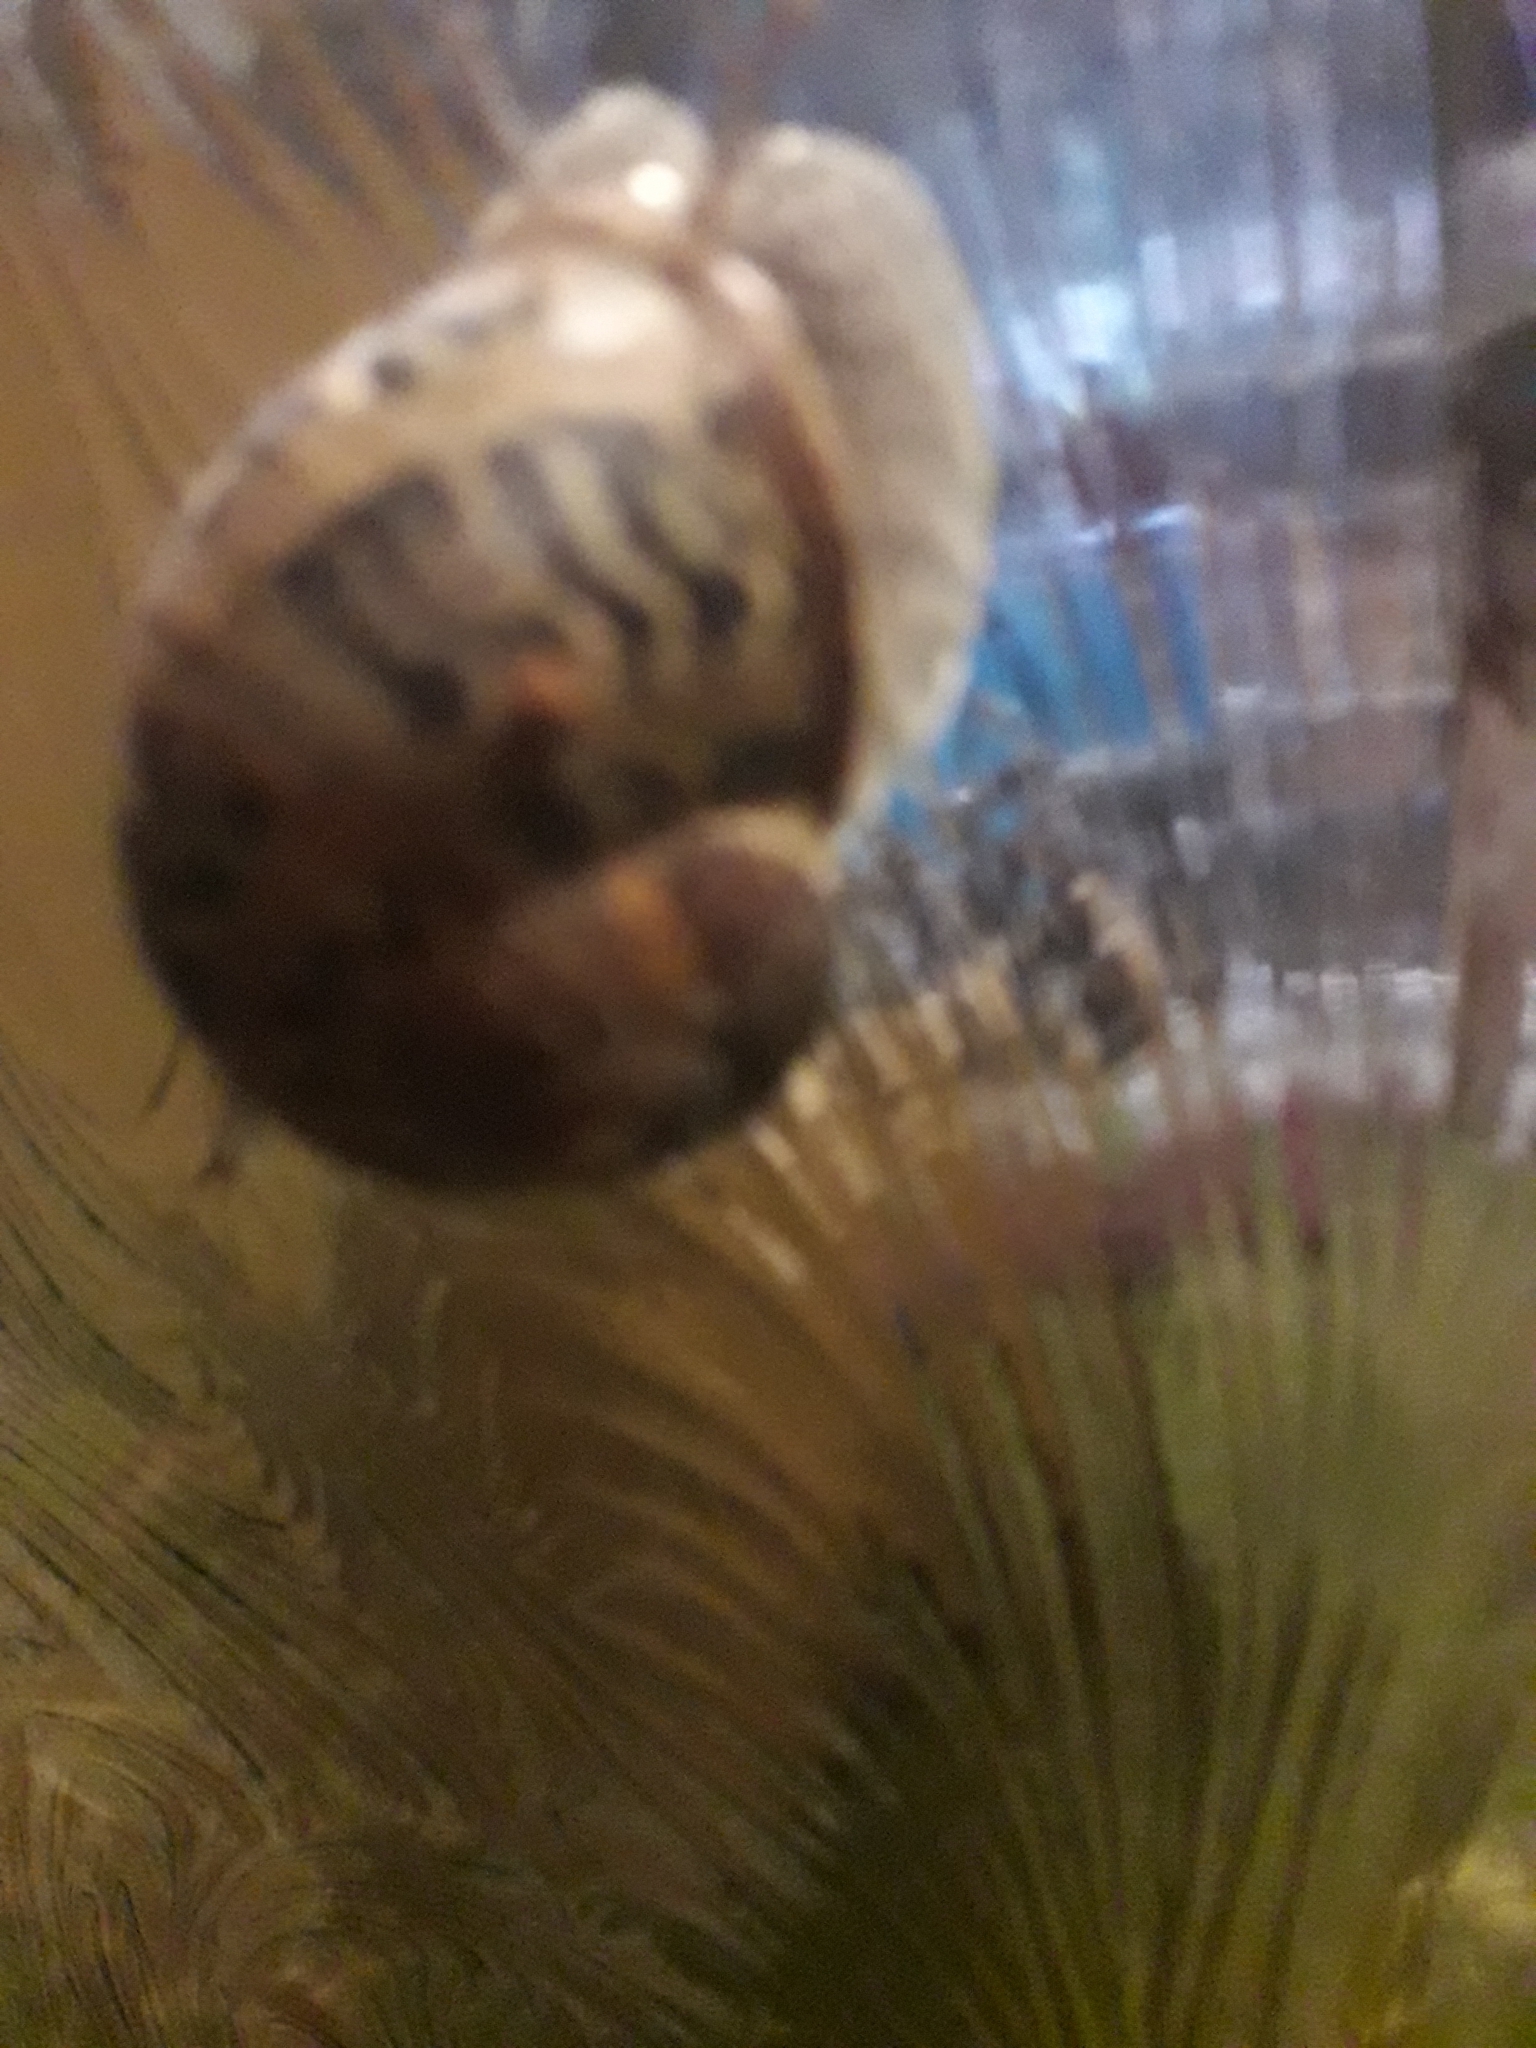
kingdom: Animalia
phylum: Mollusca
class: Gastropoda
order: Stylommatophora
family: Helicidae
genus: Cornu
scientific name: Cornu aspersum
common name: Brown garden snail
